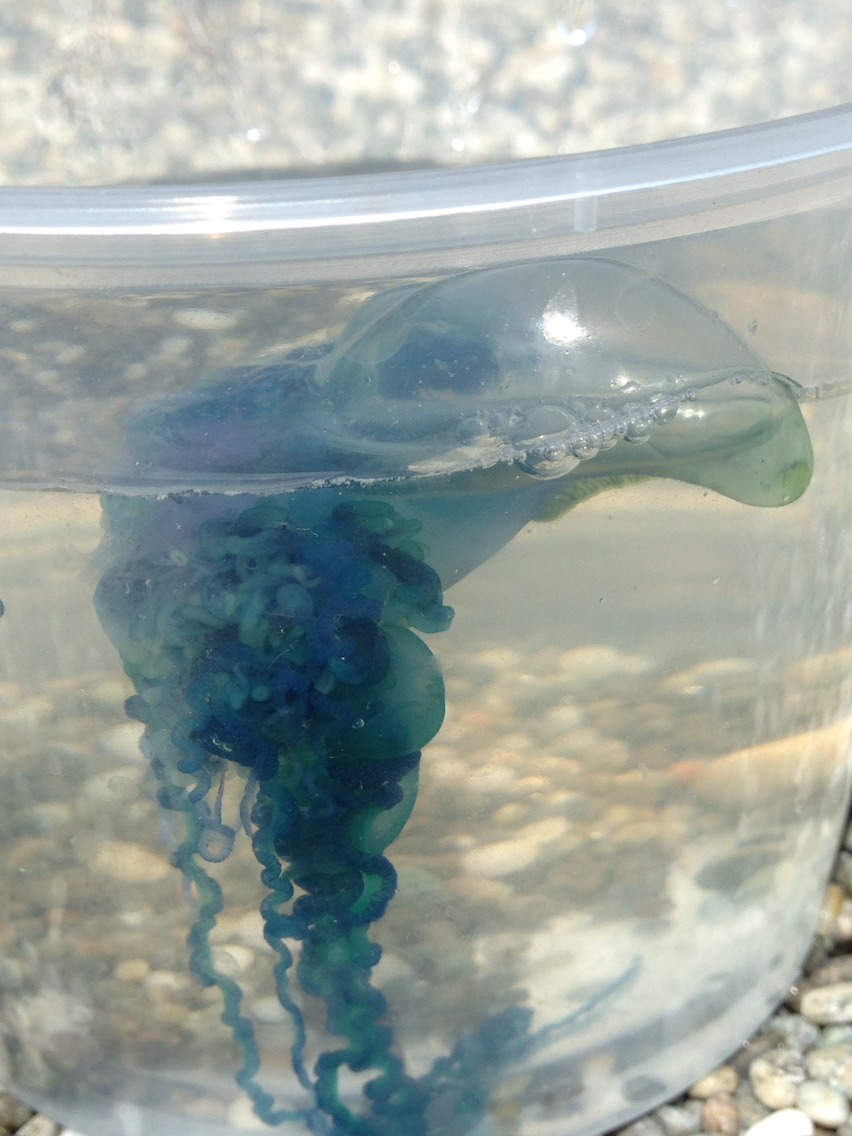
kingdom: Animalia
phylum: Cnidaria
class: Hydrozoa
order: Siphonophorae
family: Physaliidae
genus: Physalia
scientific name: Physalia physalis
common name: Portuguese man-of-war
